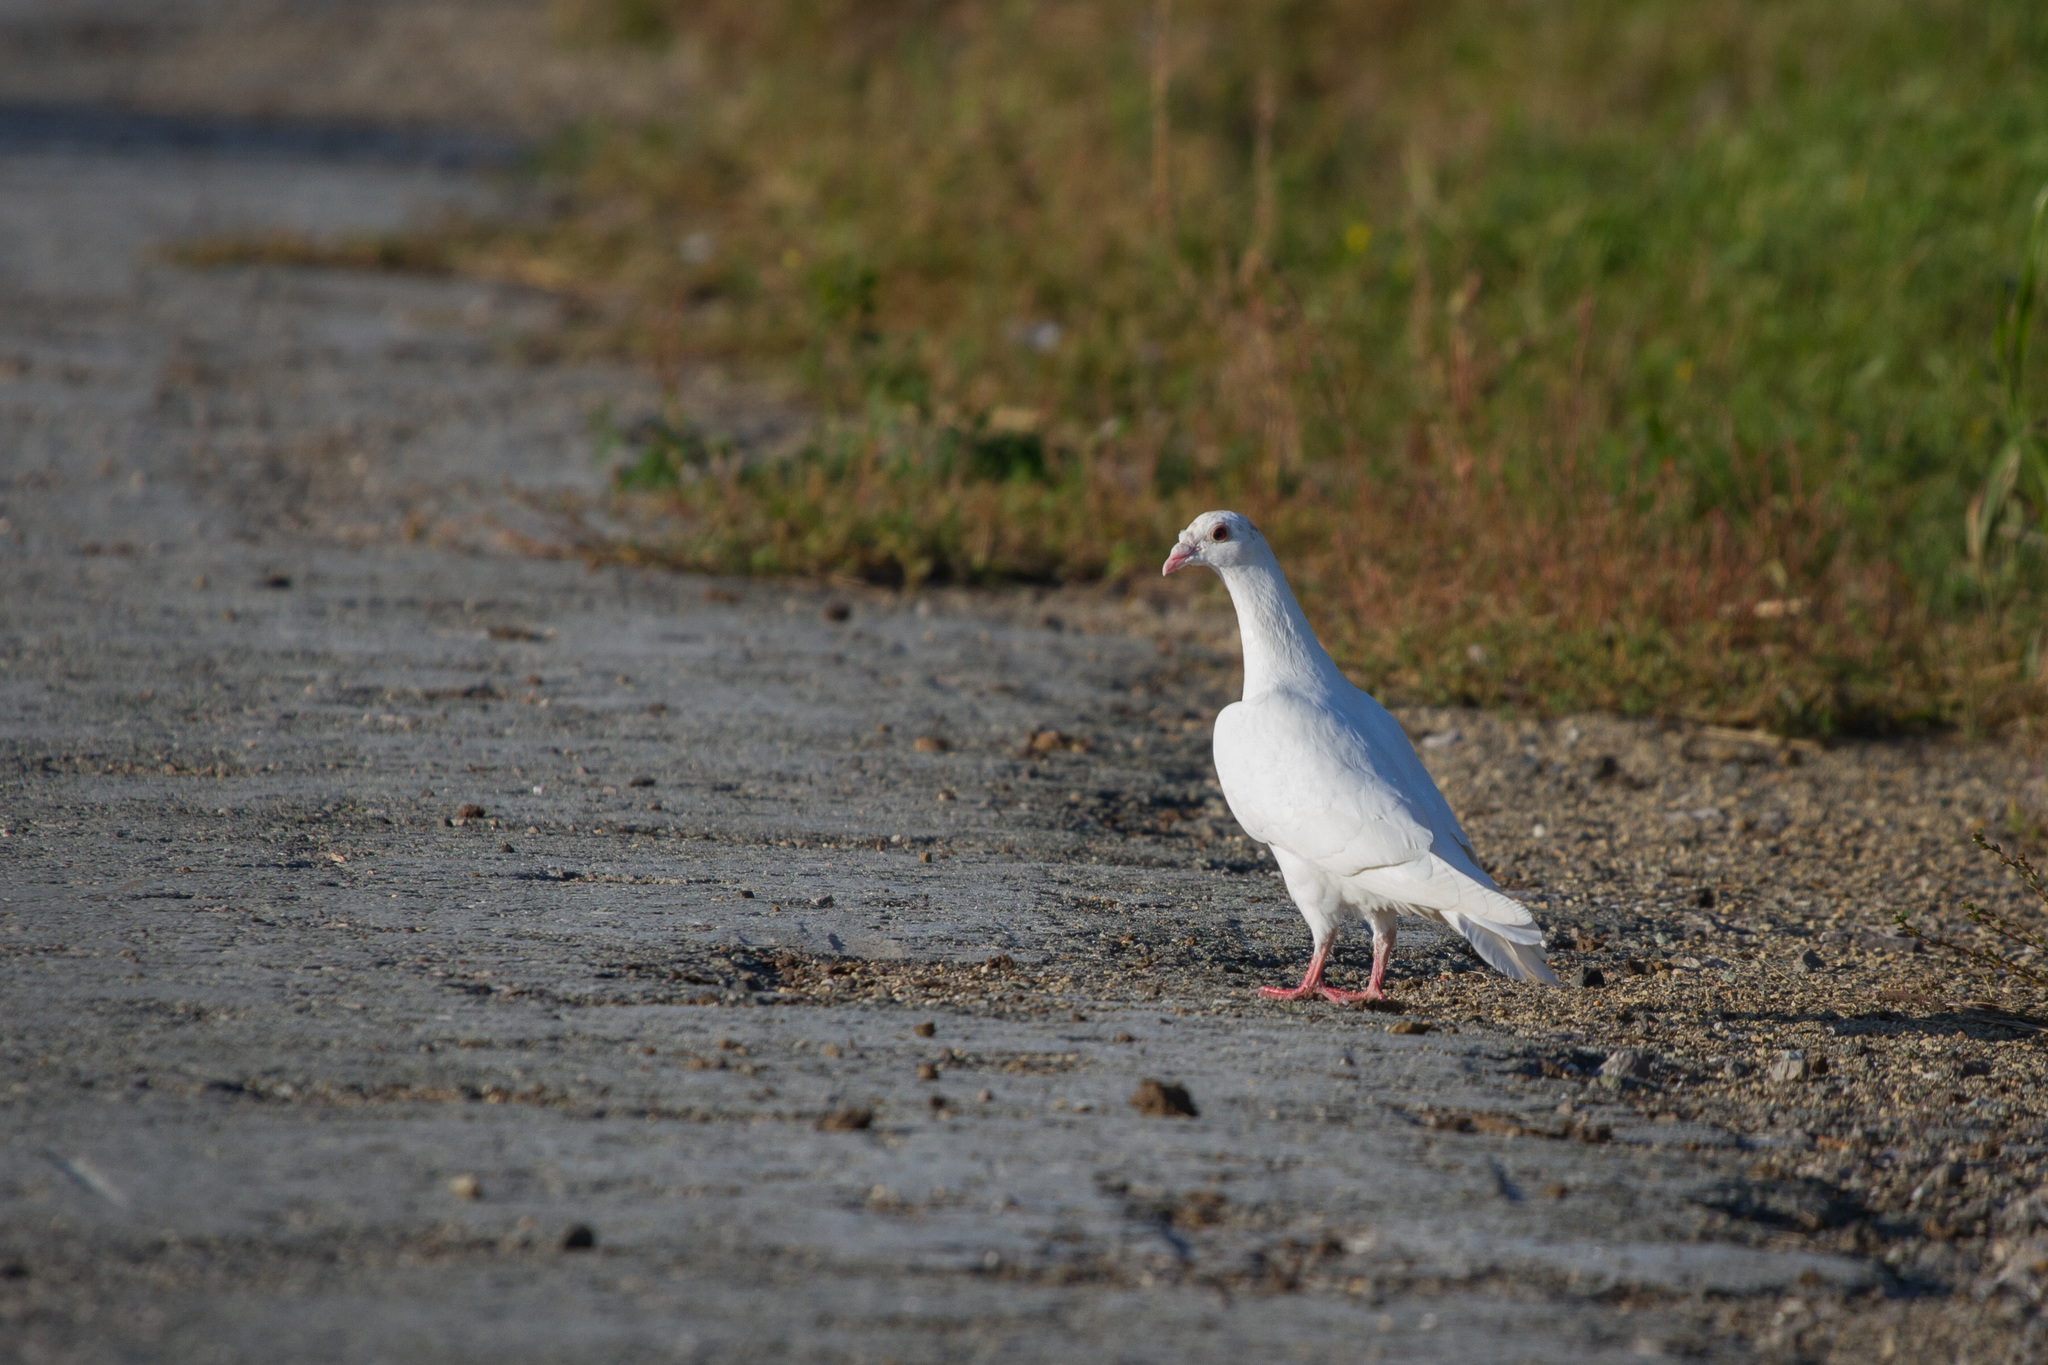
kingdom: Animalia
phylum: Chordata
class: Aves
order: Columbiformes
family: Columbidae
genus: Columba
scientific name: Columba livia
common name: Rock pigeon
